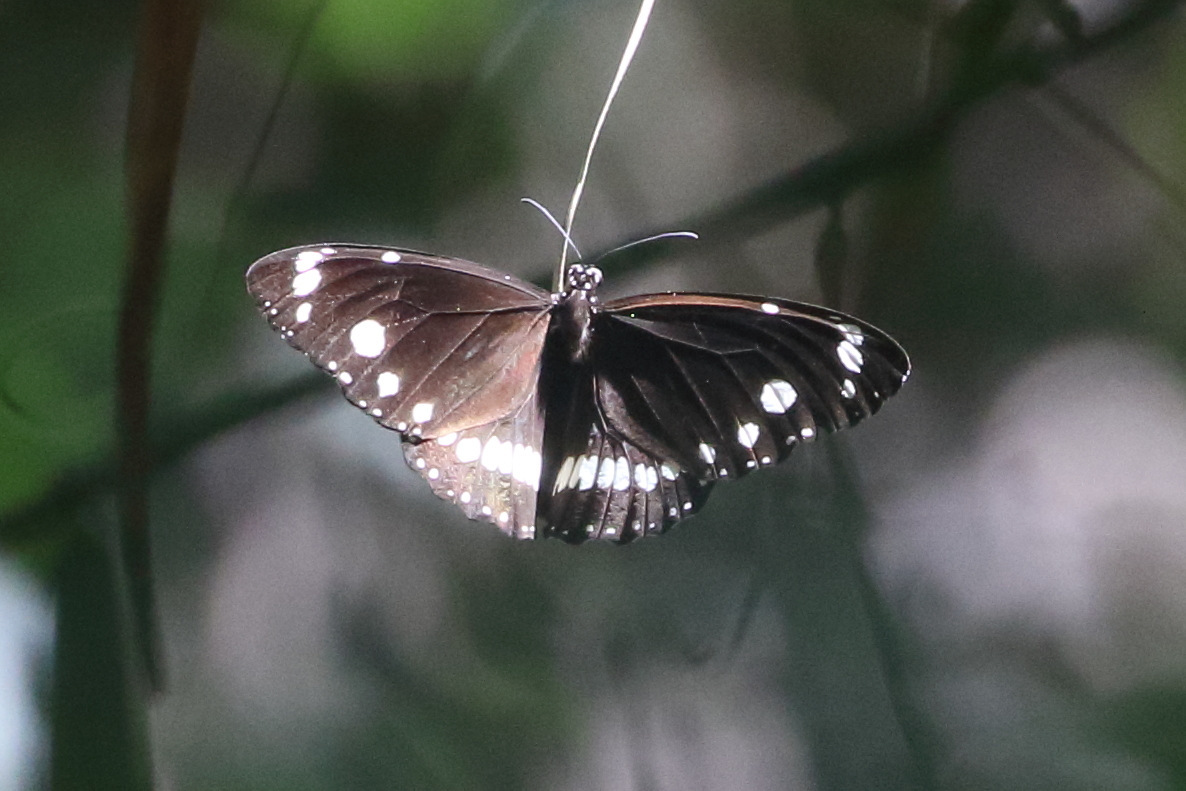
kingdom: Animalia
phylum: Arthropoda
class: Insecta
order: Lepidoptera
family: Nymphalidae
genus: Euploea
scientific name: Euploea core
